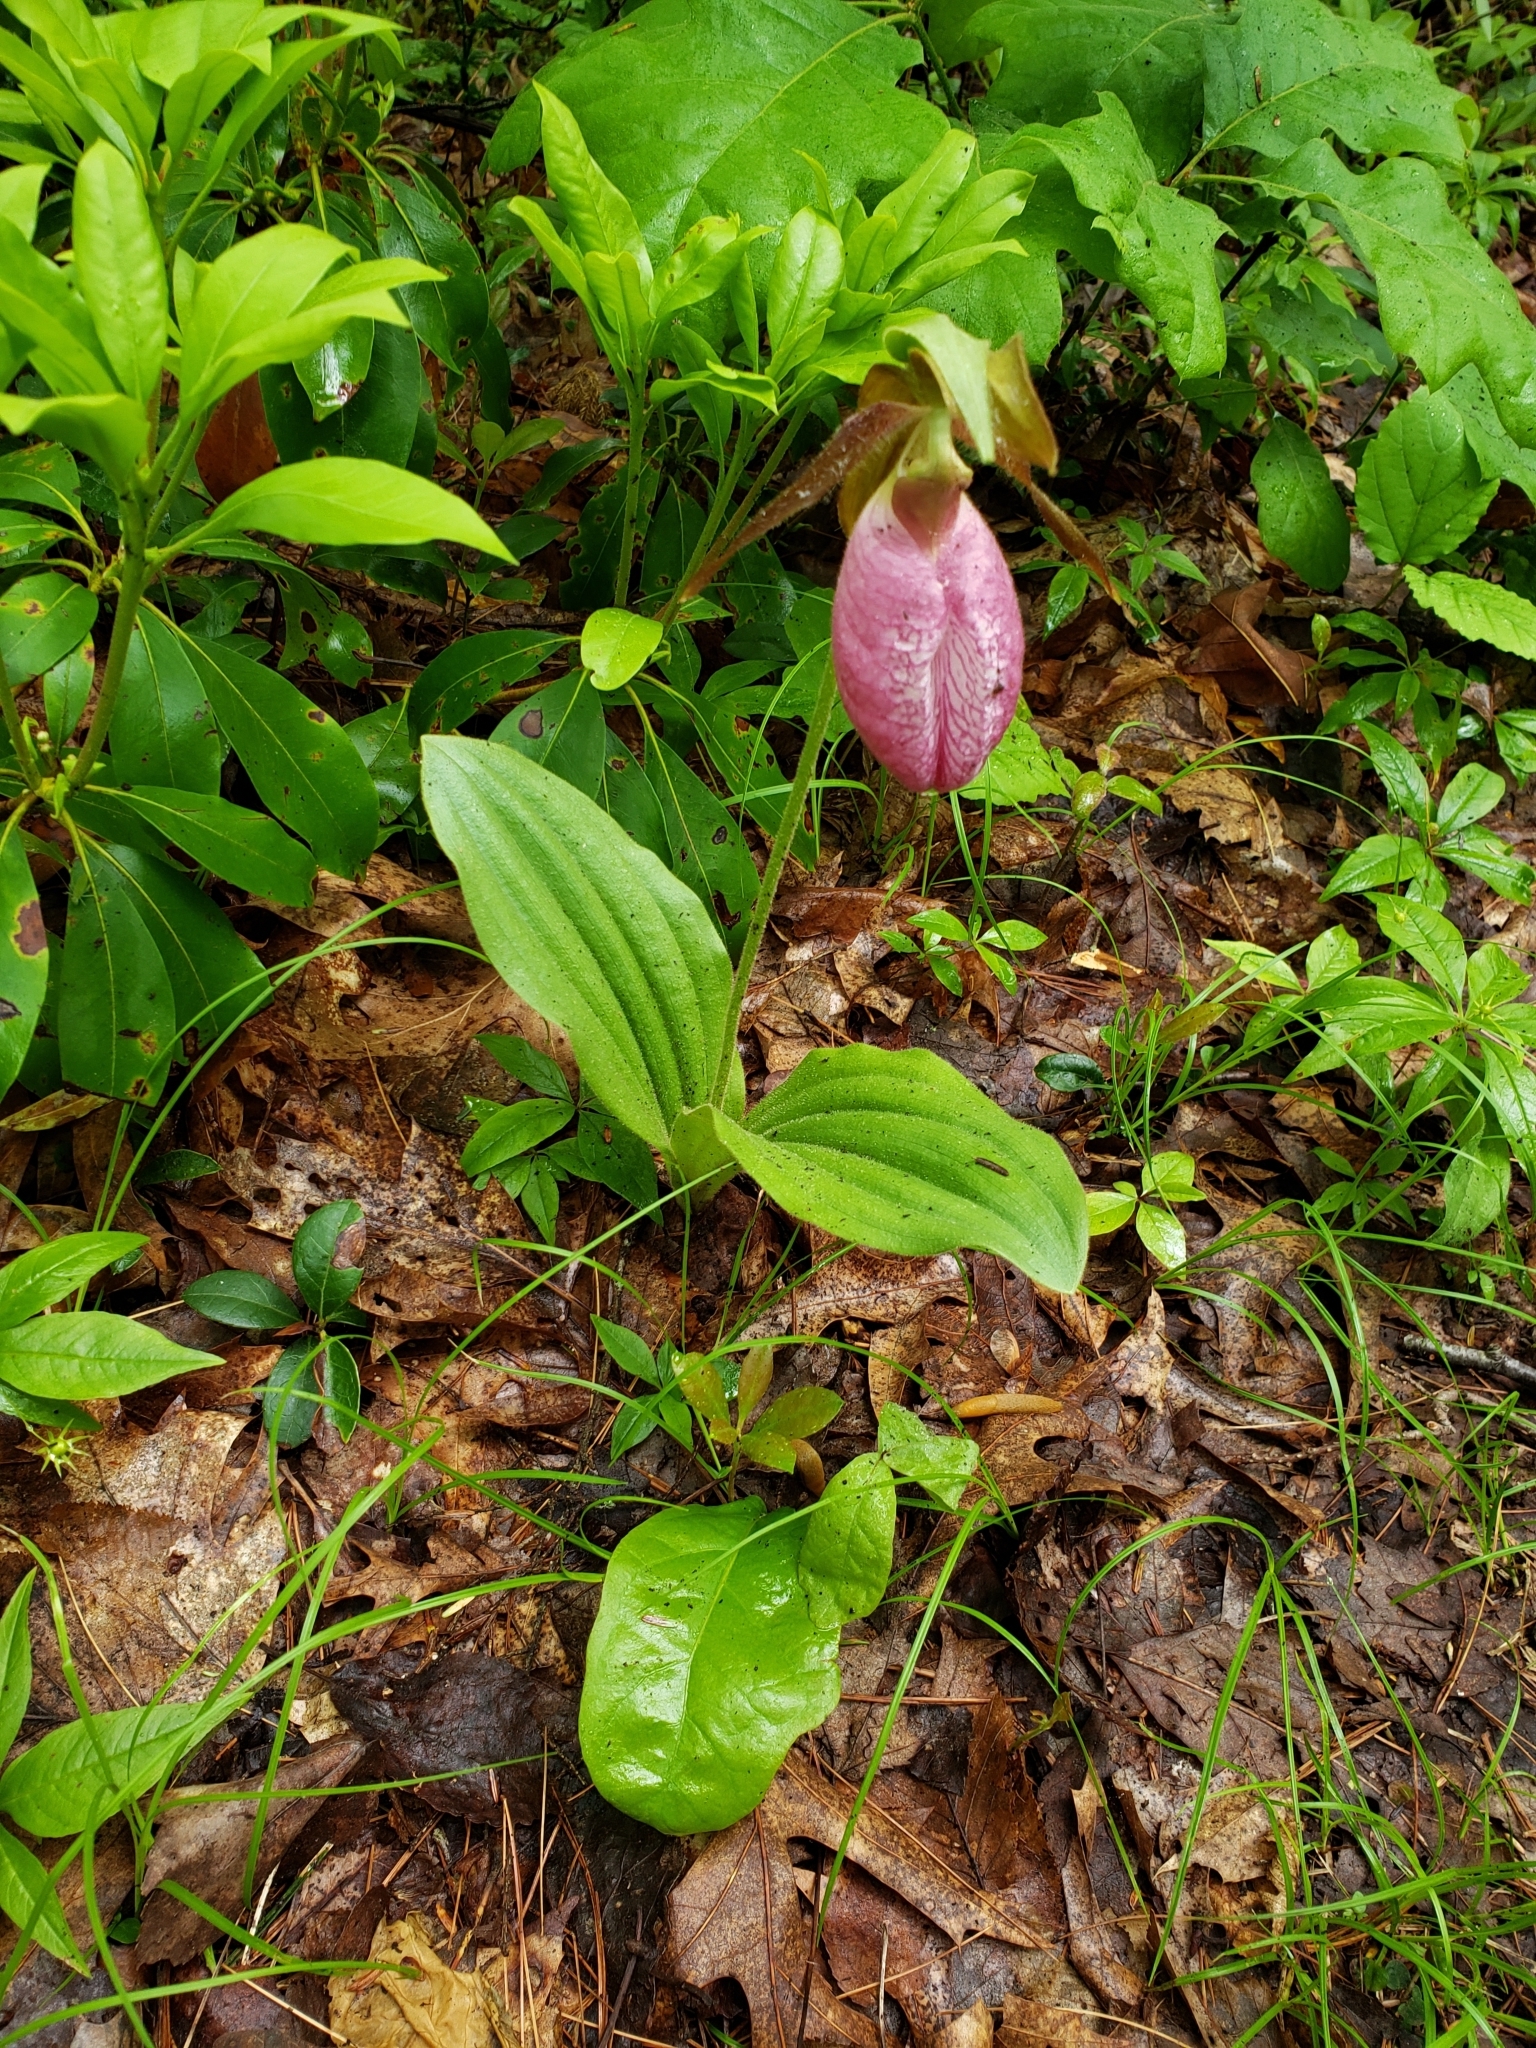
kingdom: Plantae
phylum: Tracheophyta
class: Liliopsida
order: Asparagales
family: Orchidaceae
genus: Cypripedium
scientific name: Cypripedium acaule
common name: Pink lady's-slipper
